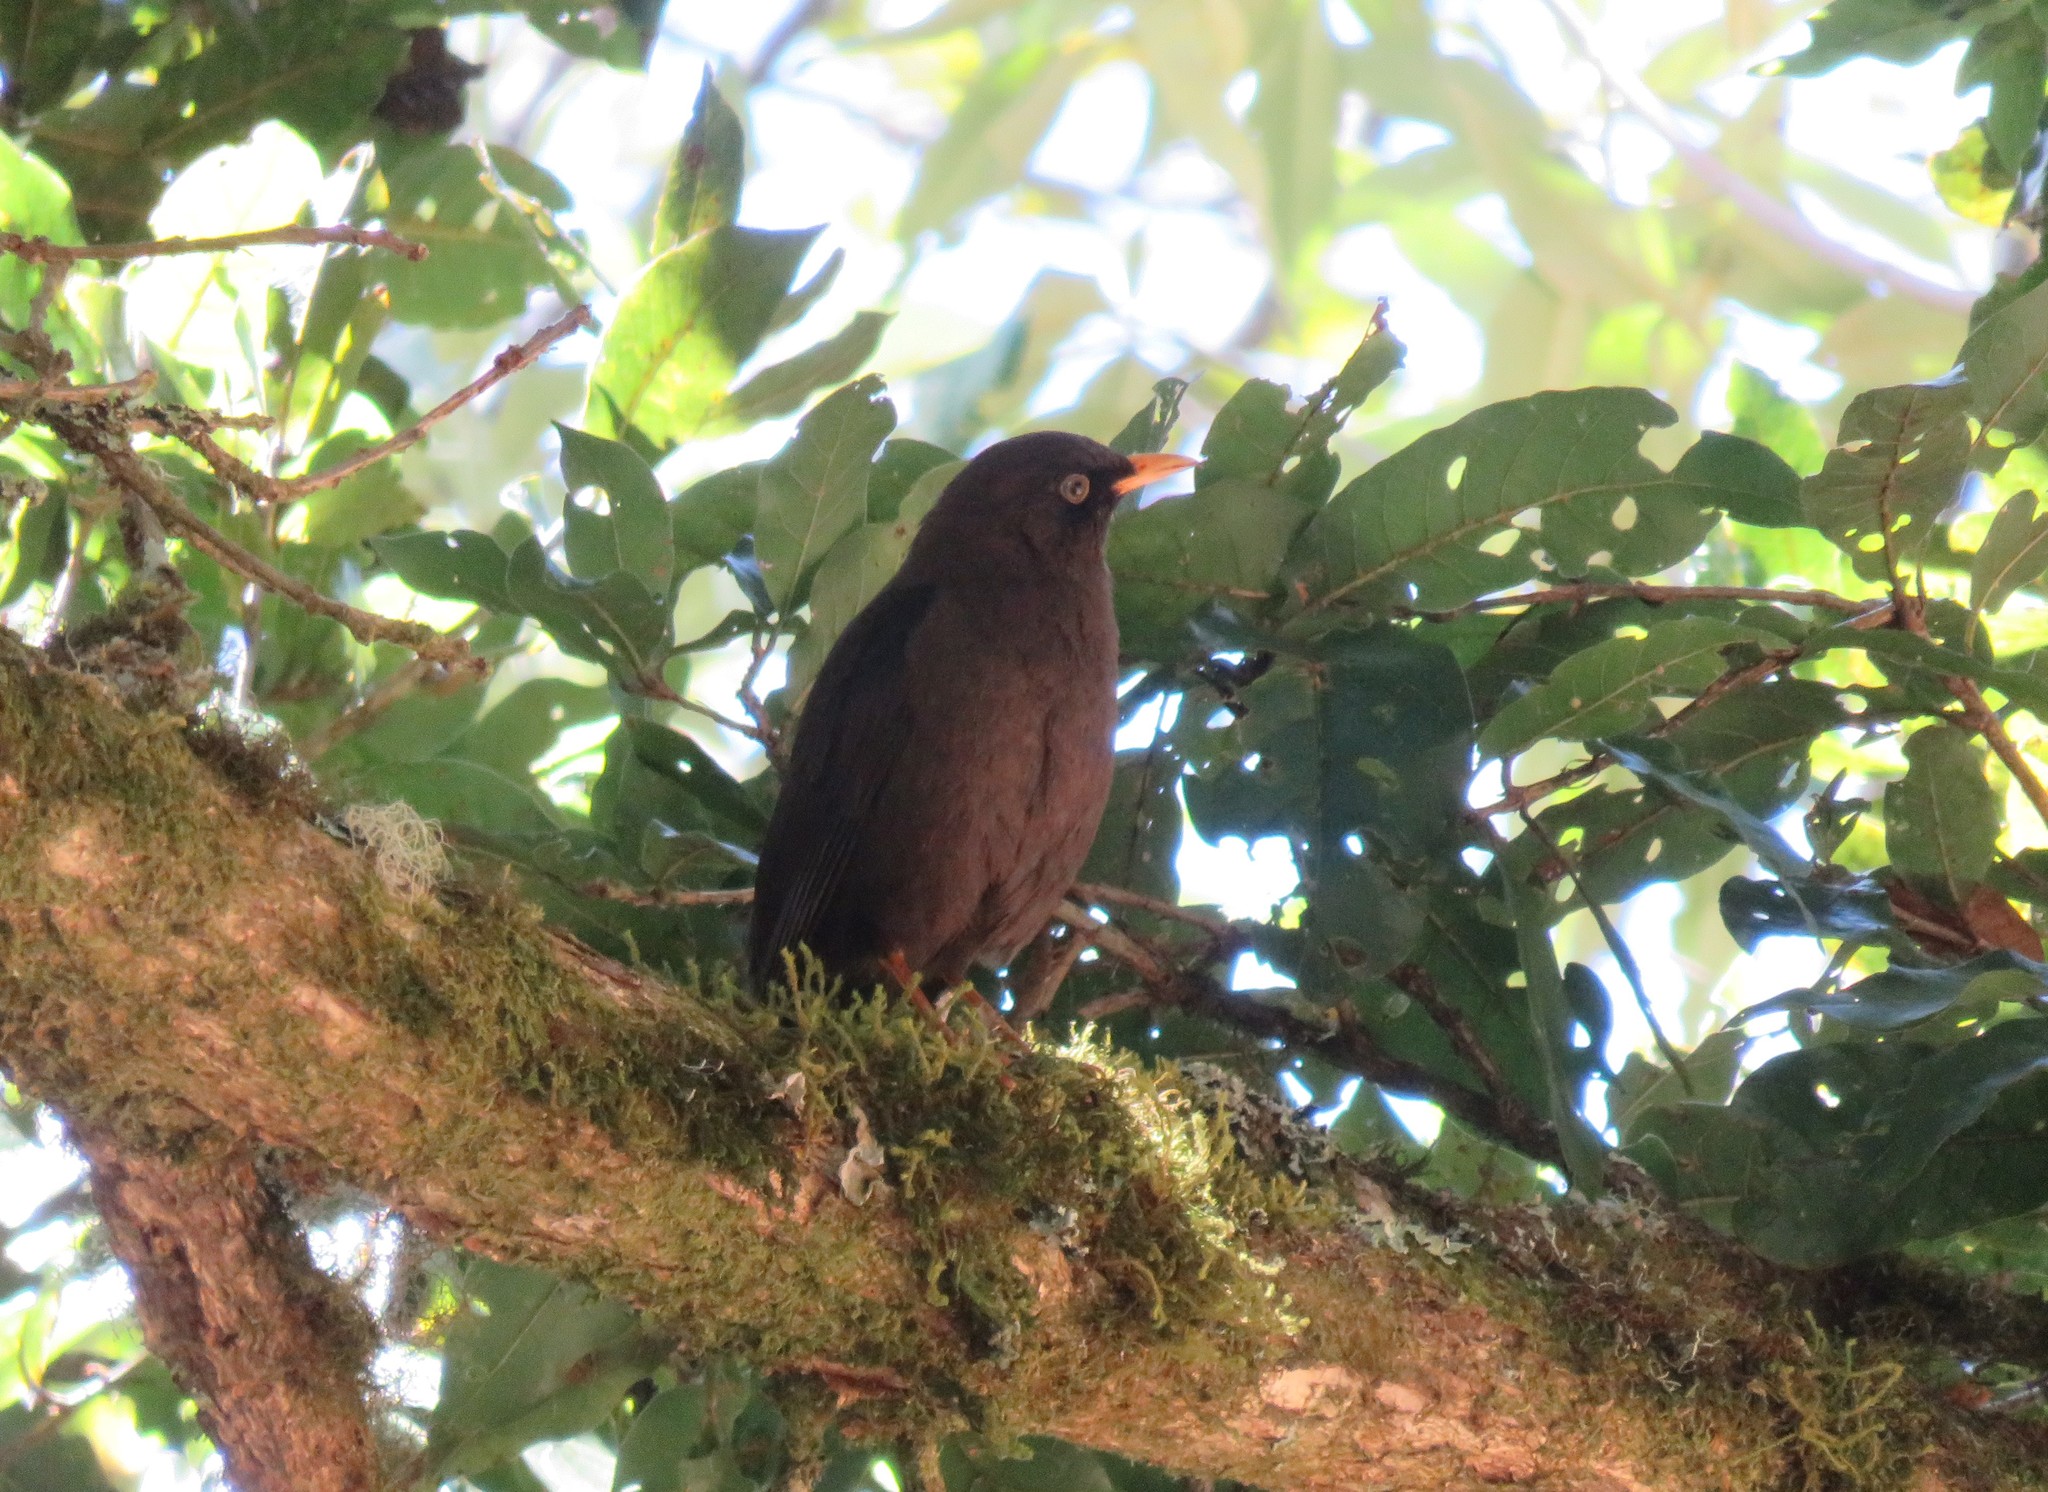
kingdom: Animalia
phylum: Chordata
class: Aves
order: Passeriformes
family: Turdidae
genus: Turdus
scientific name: Turdus nigrescens
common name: Sooty thrush
